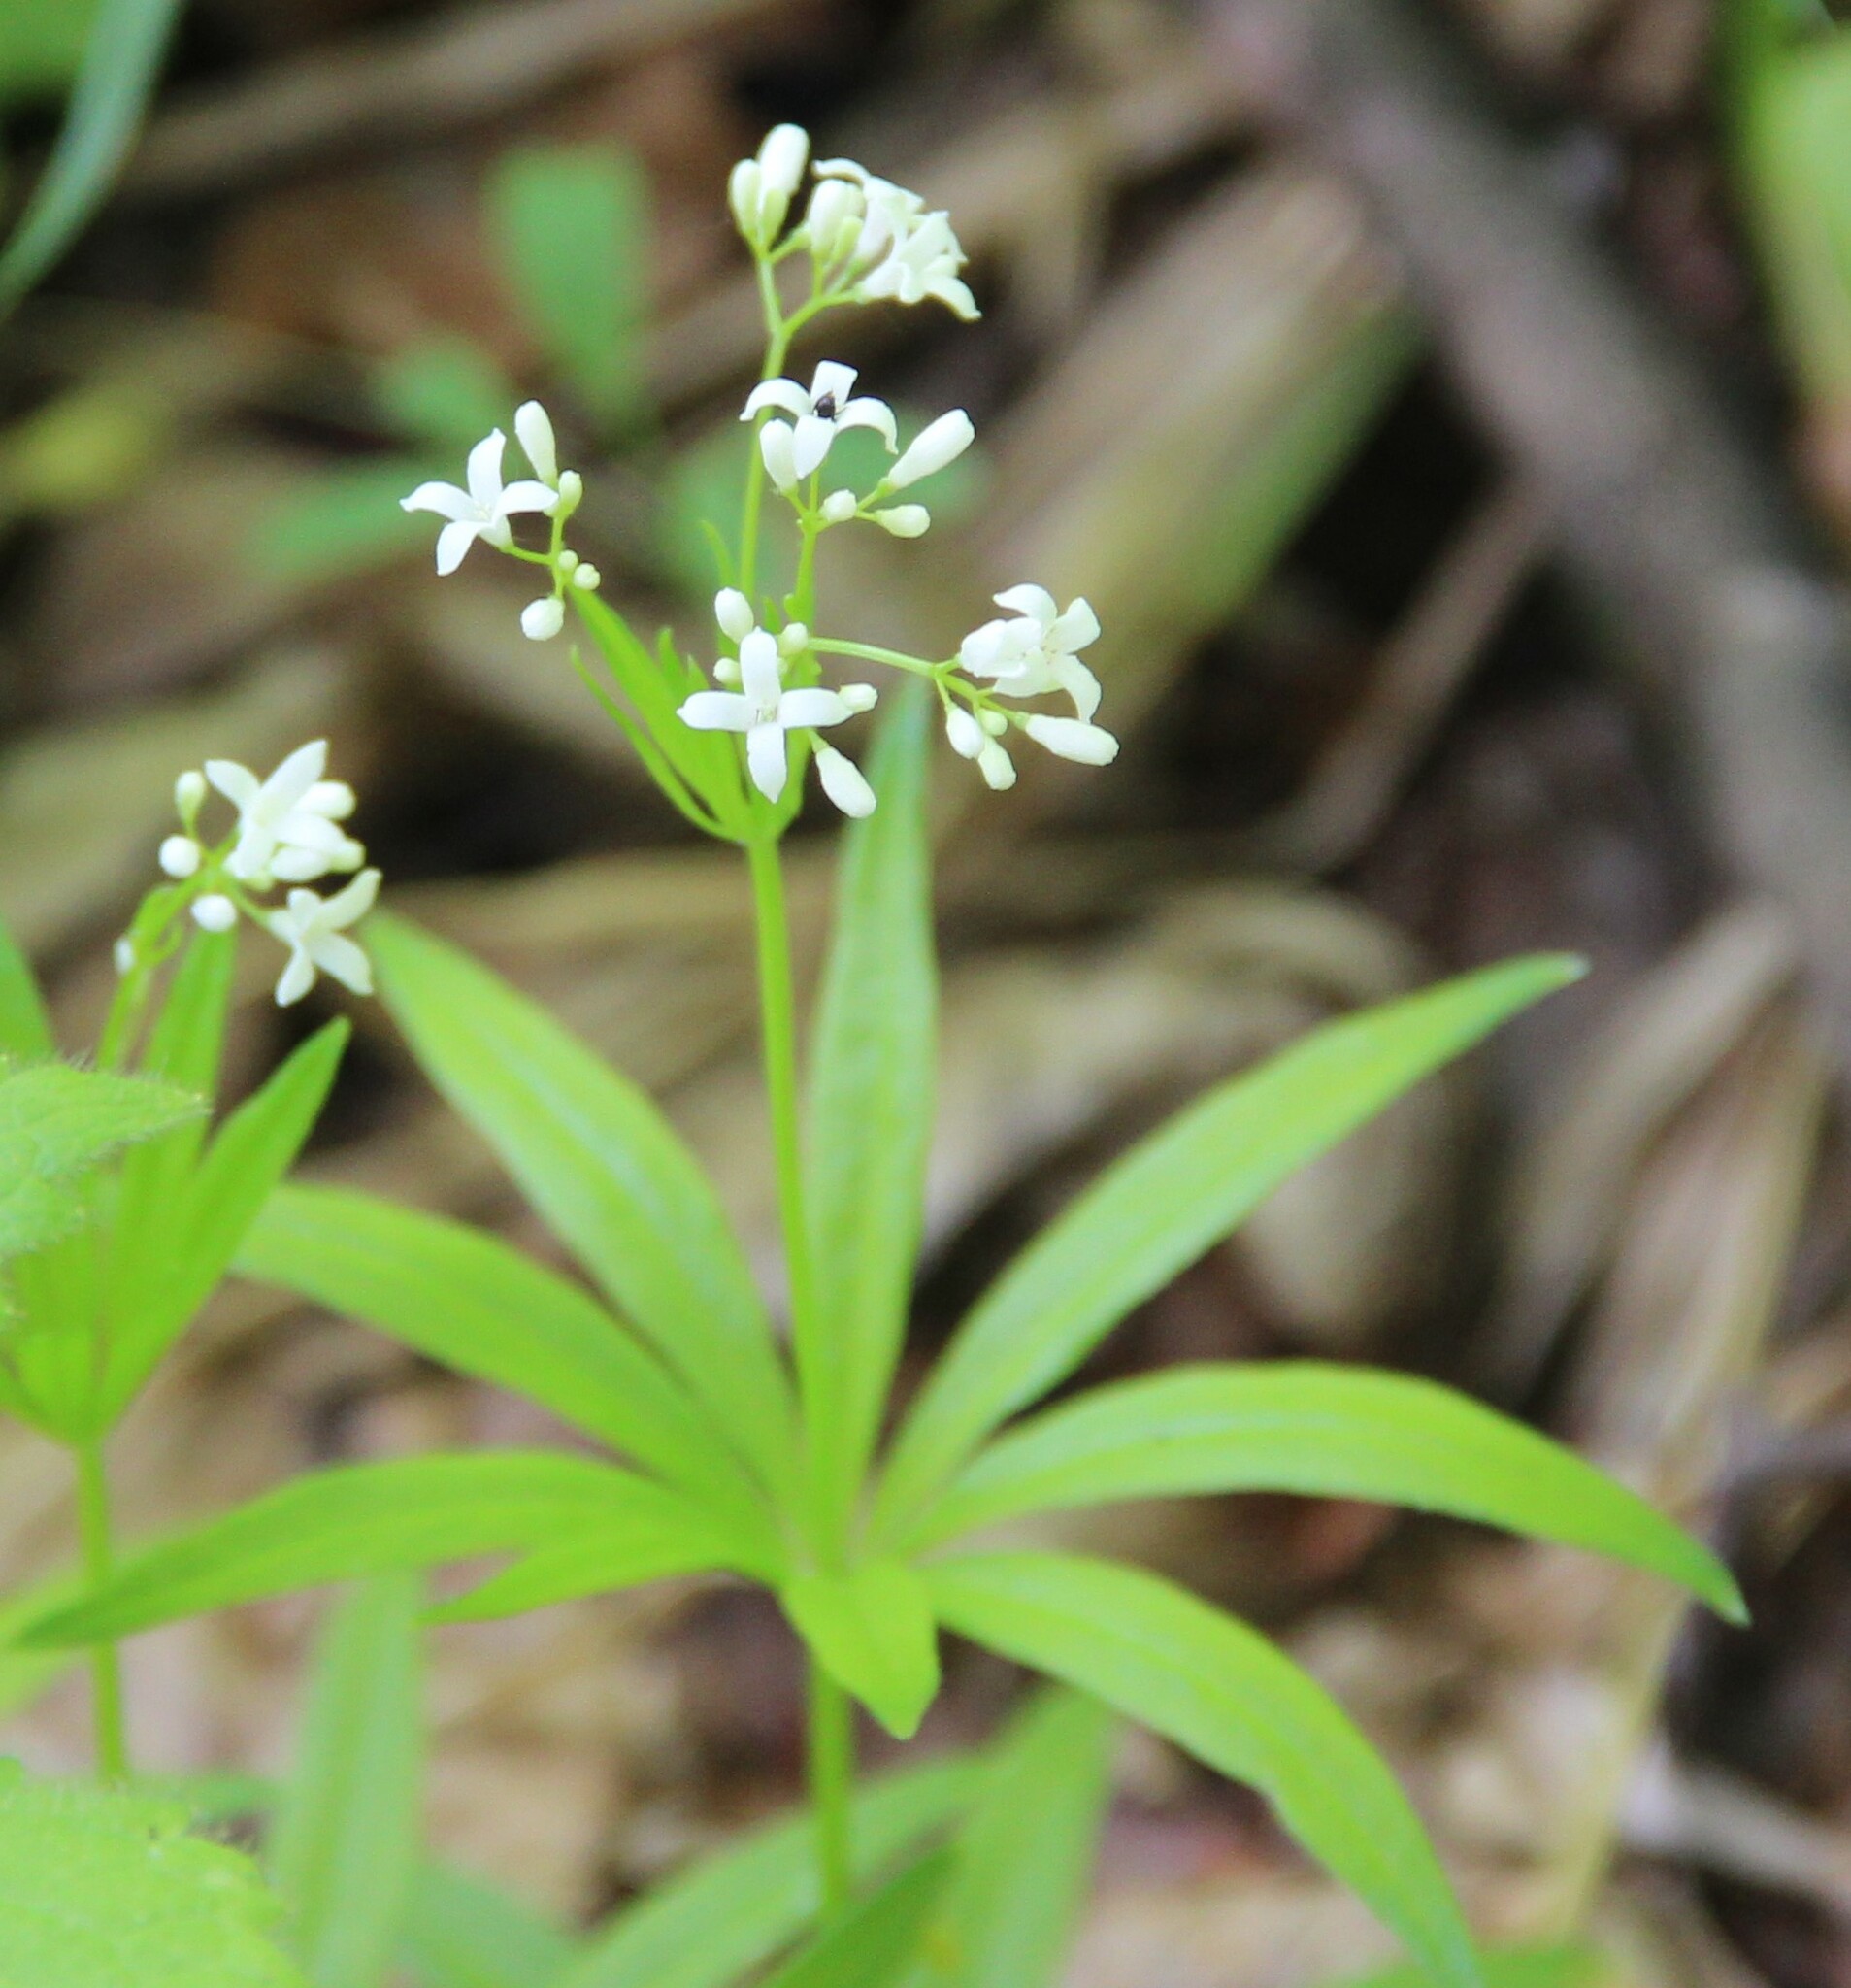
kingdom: Plantae
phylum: Tracheophyta
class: Magnoliopsida
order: Gentianales
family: Rubiaceae
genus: Galium
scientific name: Galium odoratum
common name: Sweet woodruff
